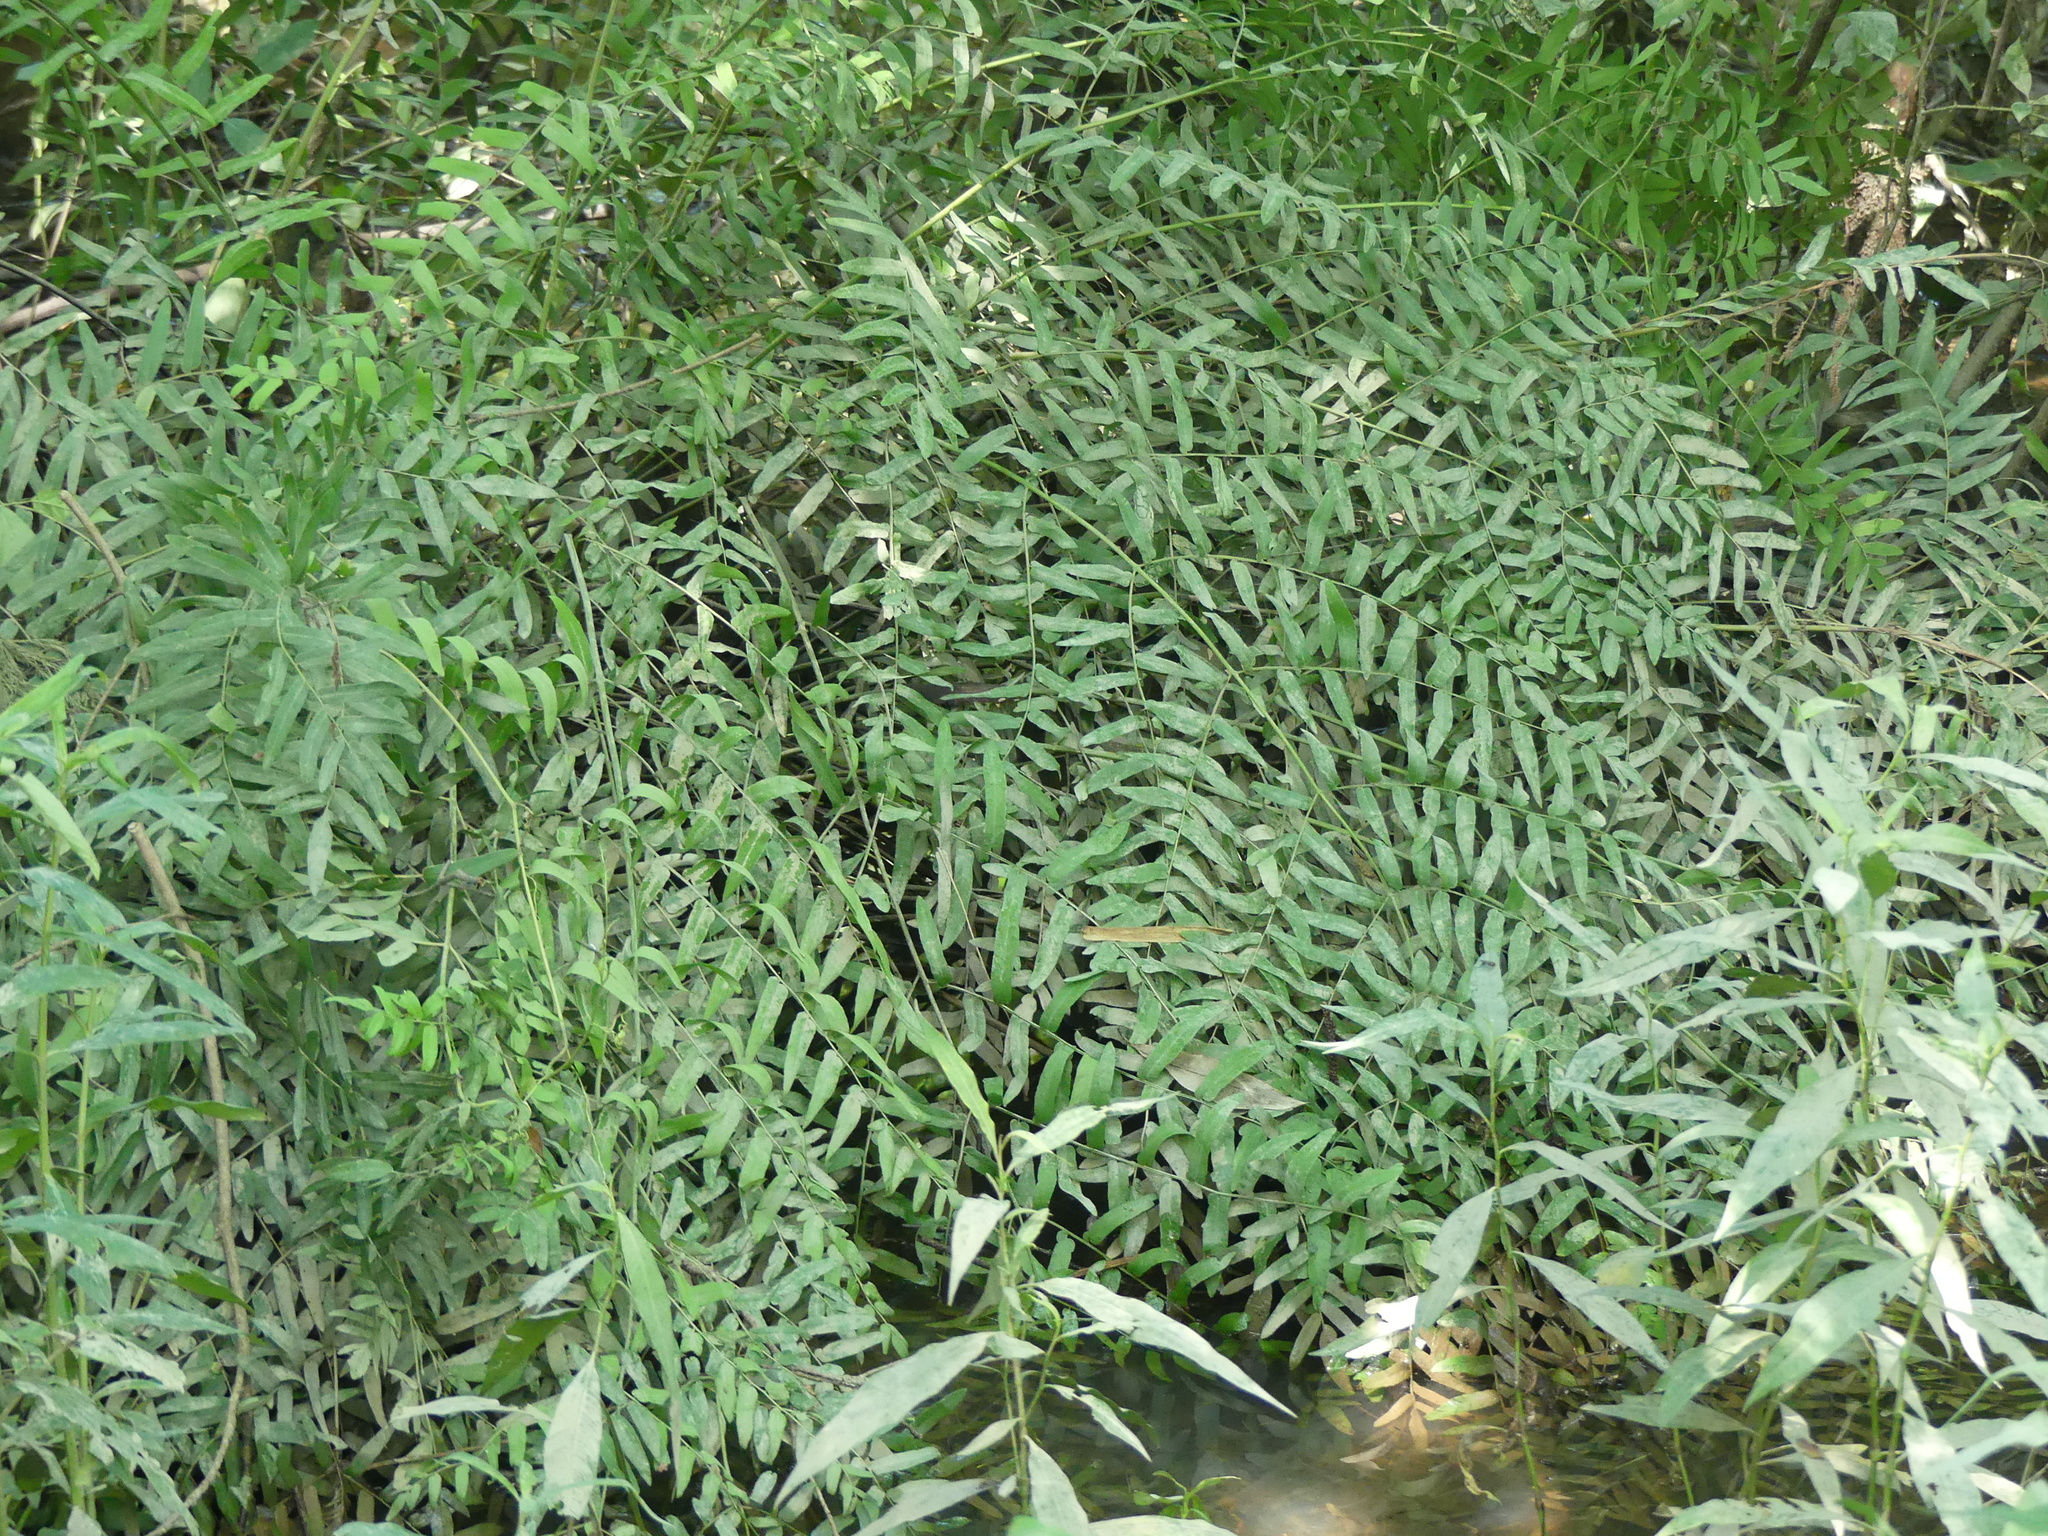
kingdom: Plantae
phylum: Tracheophyta
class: Polypodiopsida
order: Osmundales
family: Osmundaceae
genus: Osmunda
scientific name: Osmunda spectabilis
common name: American royal fern
